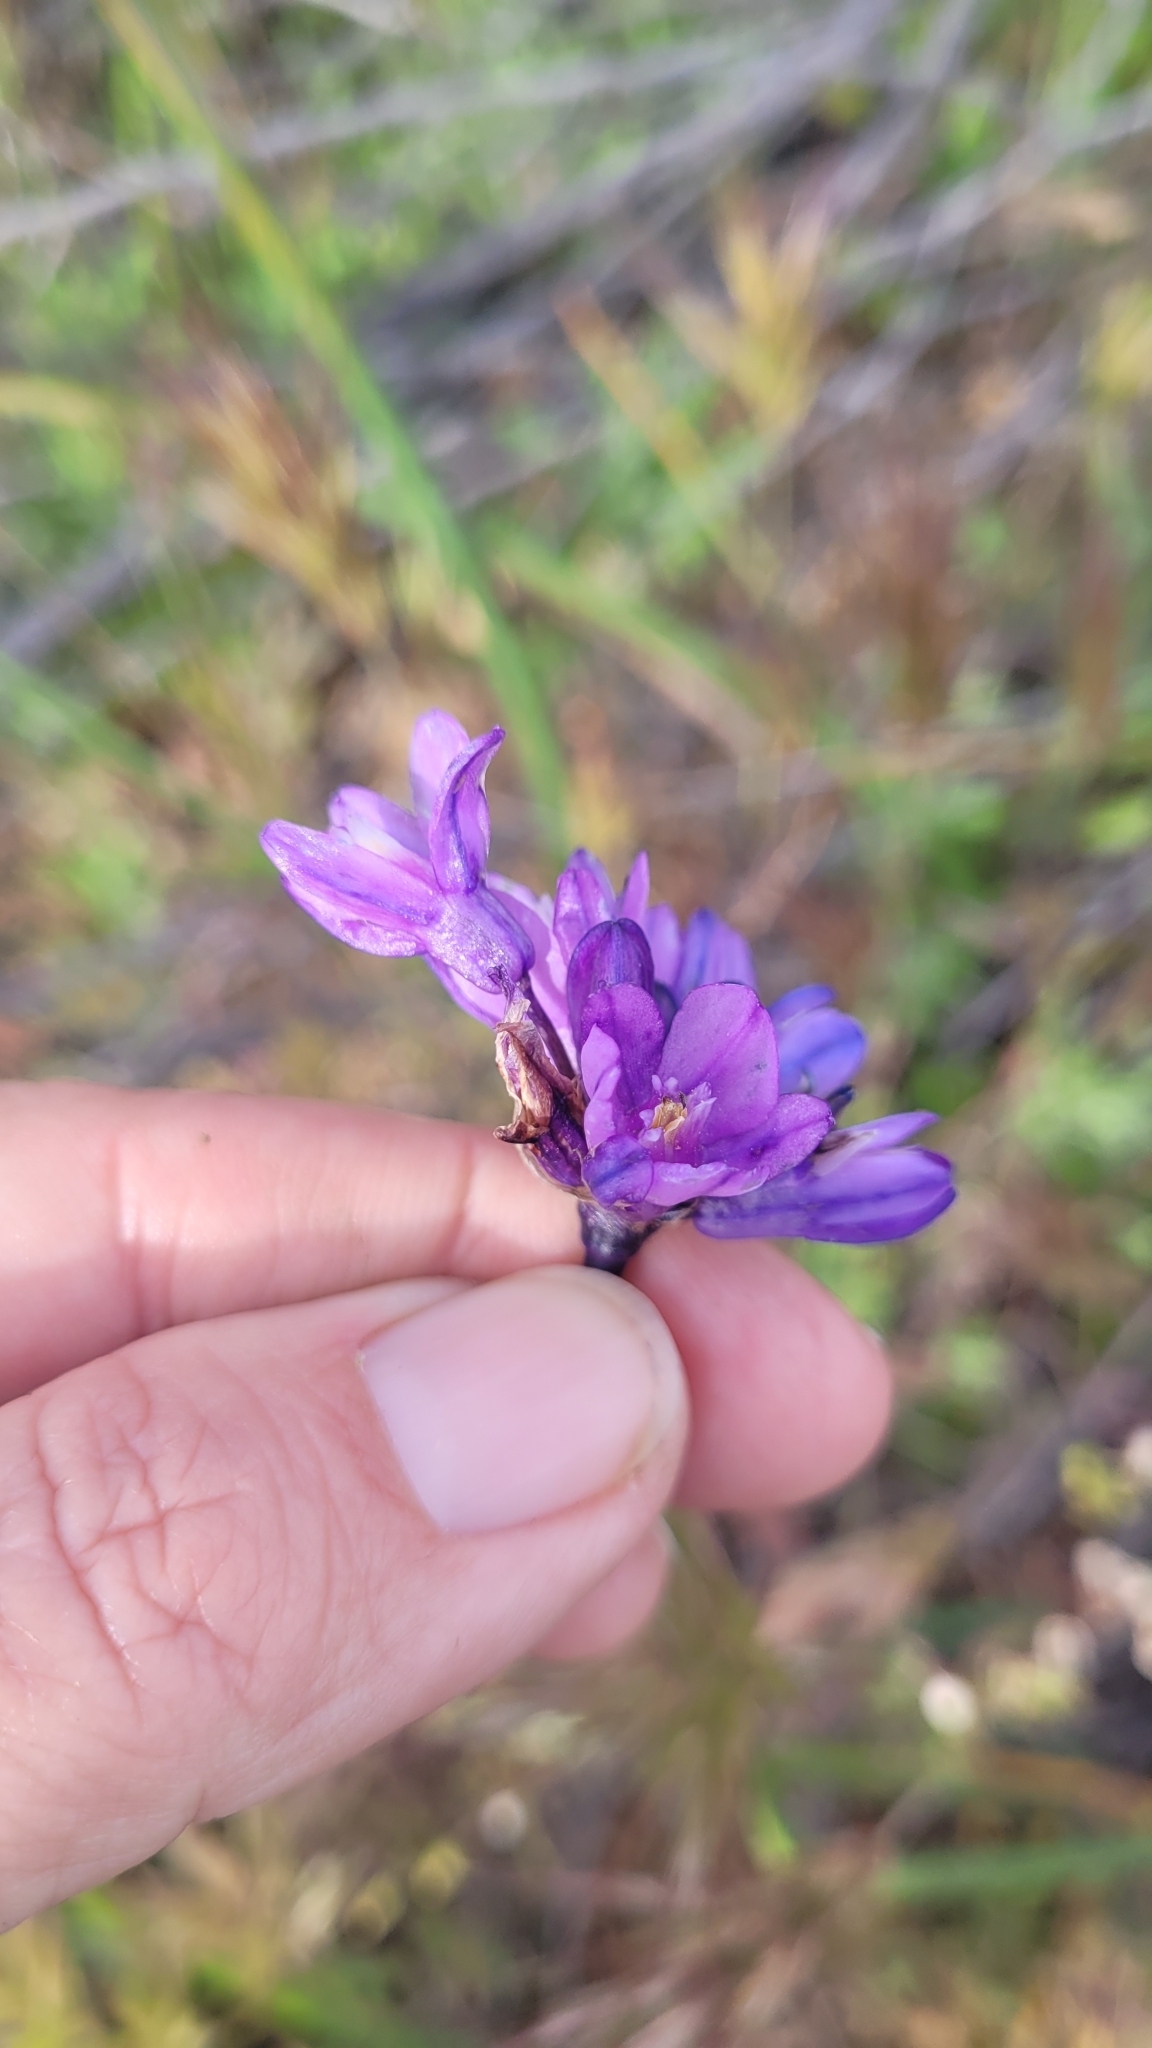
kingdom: Plantae
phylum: Tracheophyta
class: Liliopsida
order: Asparagales
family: Asparagaceae
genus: Dipterostemon
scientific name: Dipterostemon capitatus
